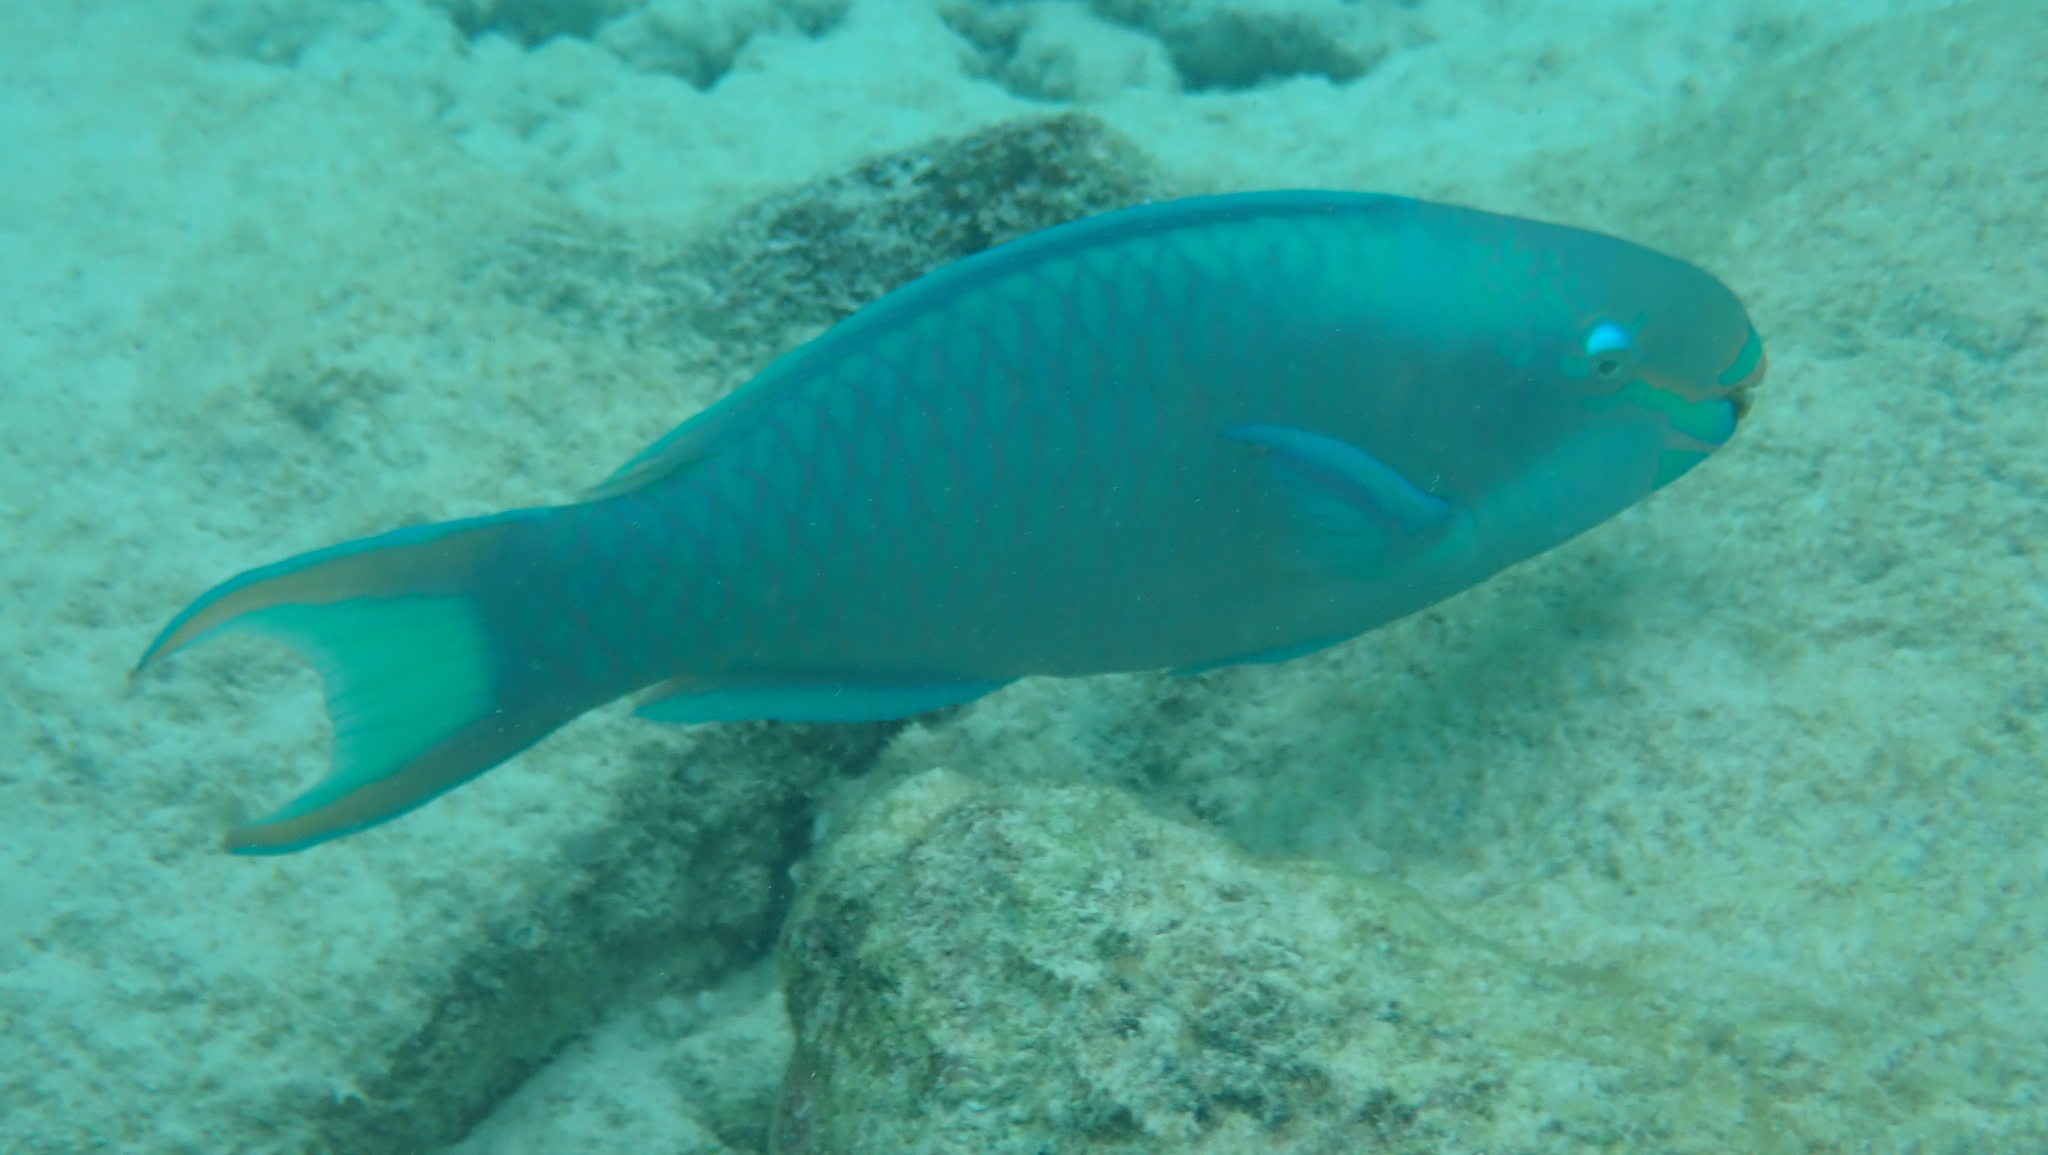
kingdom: Animalia
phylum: Chordata
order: Perciformes
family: Scaridae
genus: Scarus
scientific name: Scarus vetula
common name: Queen parrotfish
